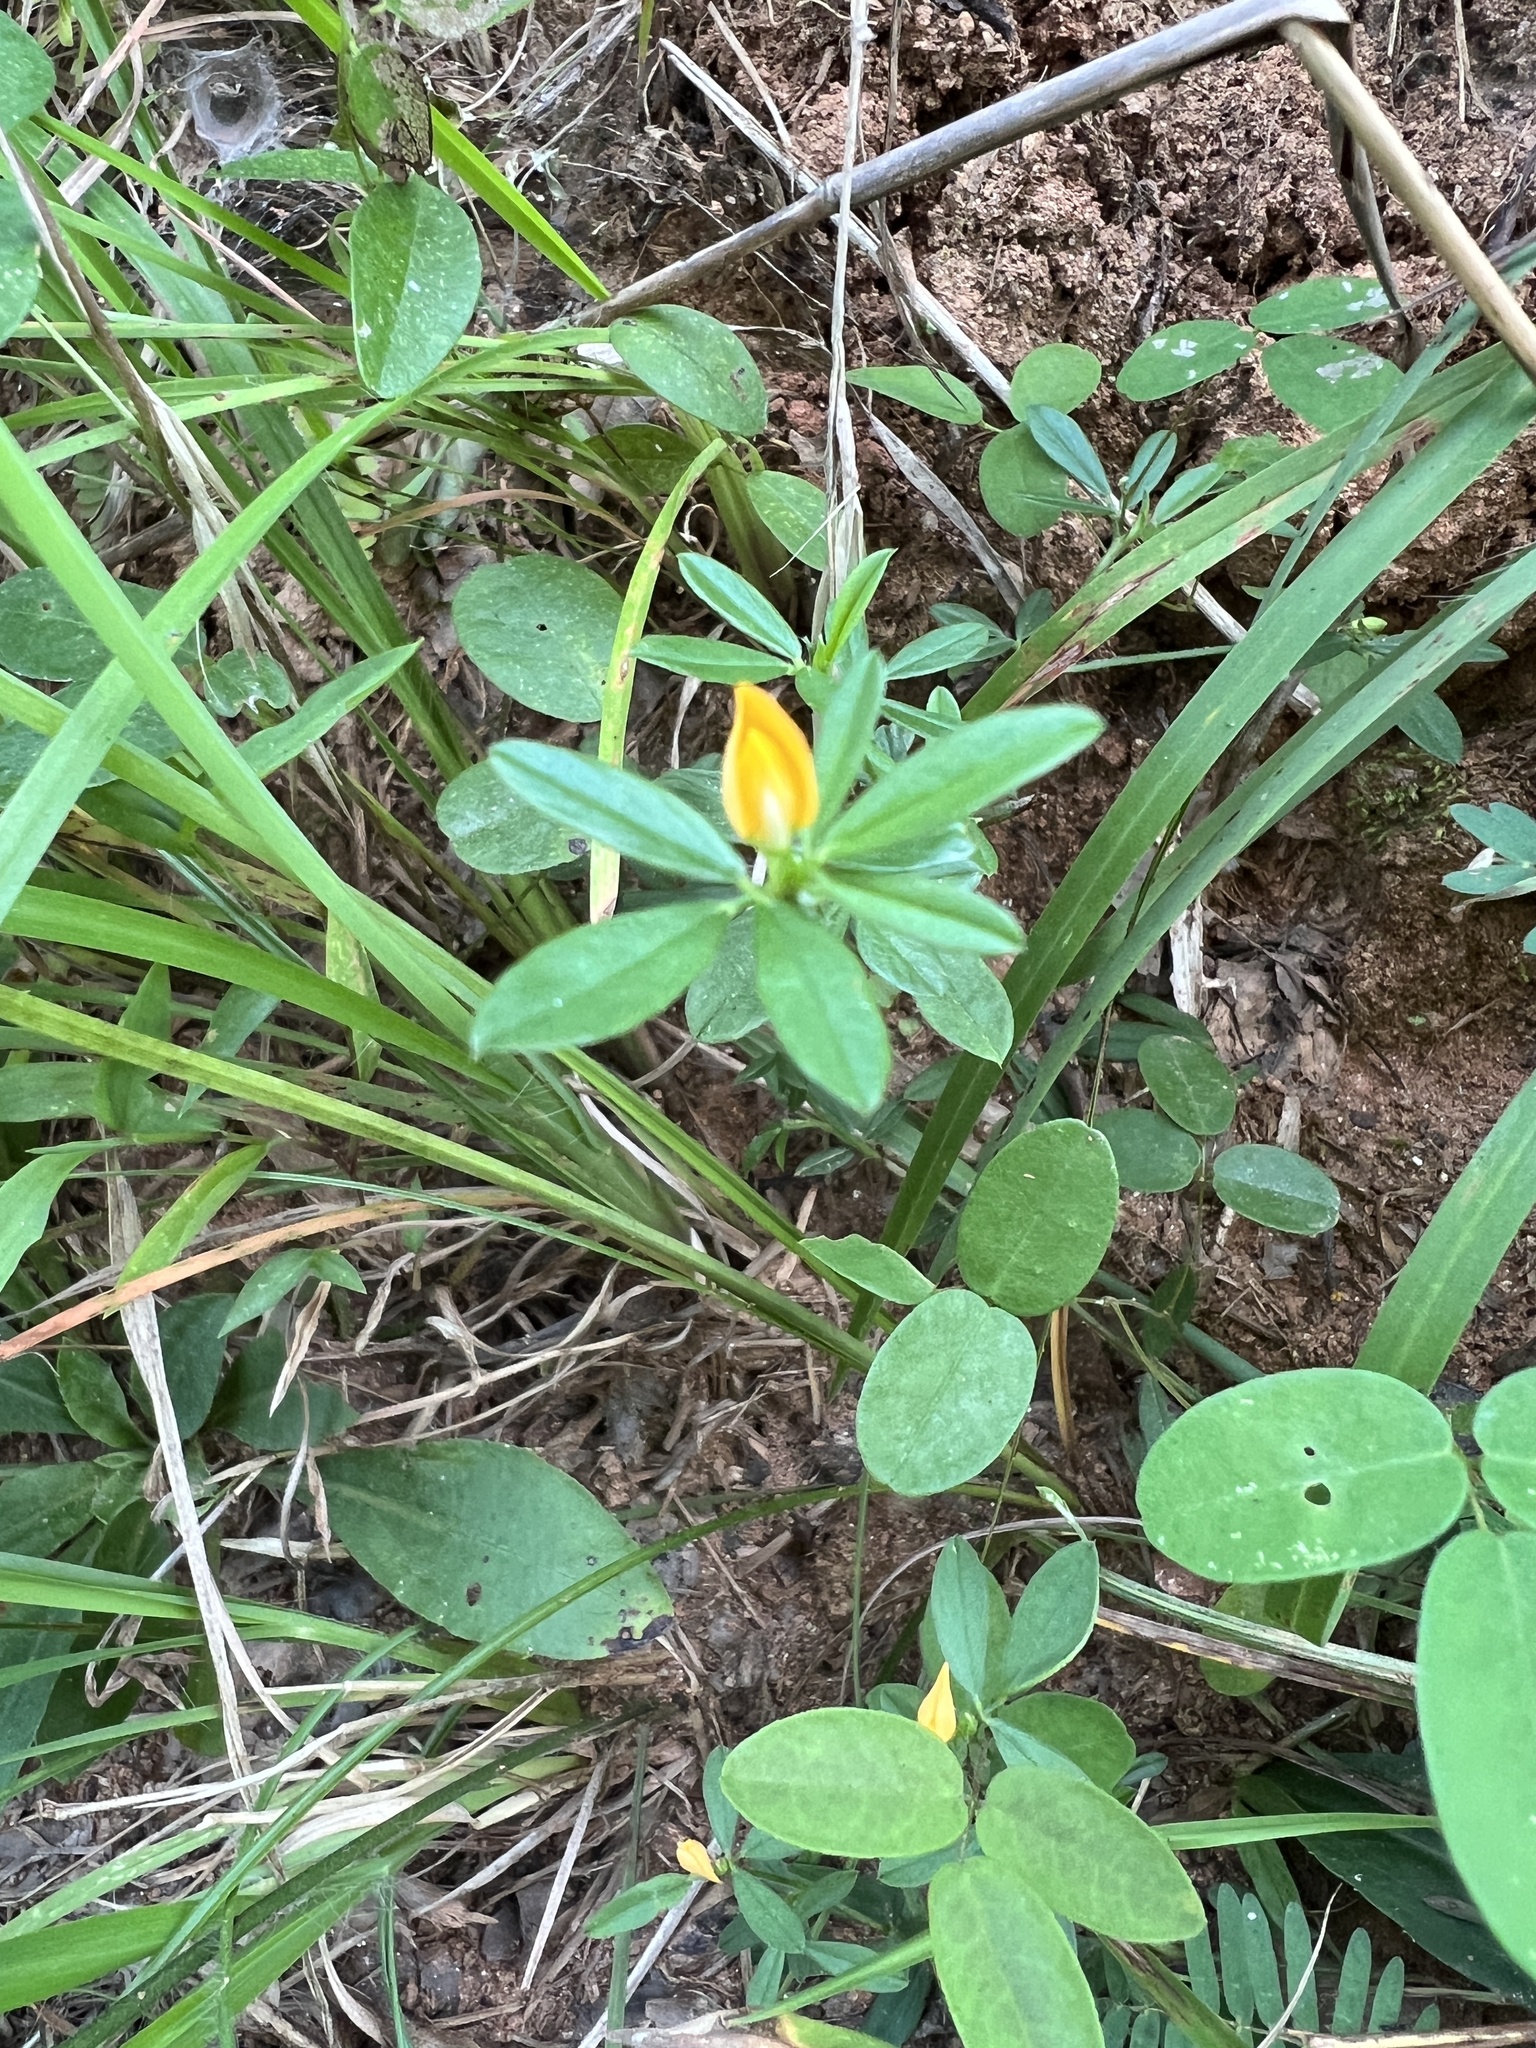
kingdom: Plantae
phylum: Tracheophyta
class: Magnoliopsida
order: Fabales
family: Fabaceae
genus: Stylosanthes
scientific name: Stylosanthes biflora
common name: Two-flower pencil-flower
